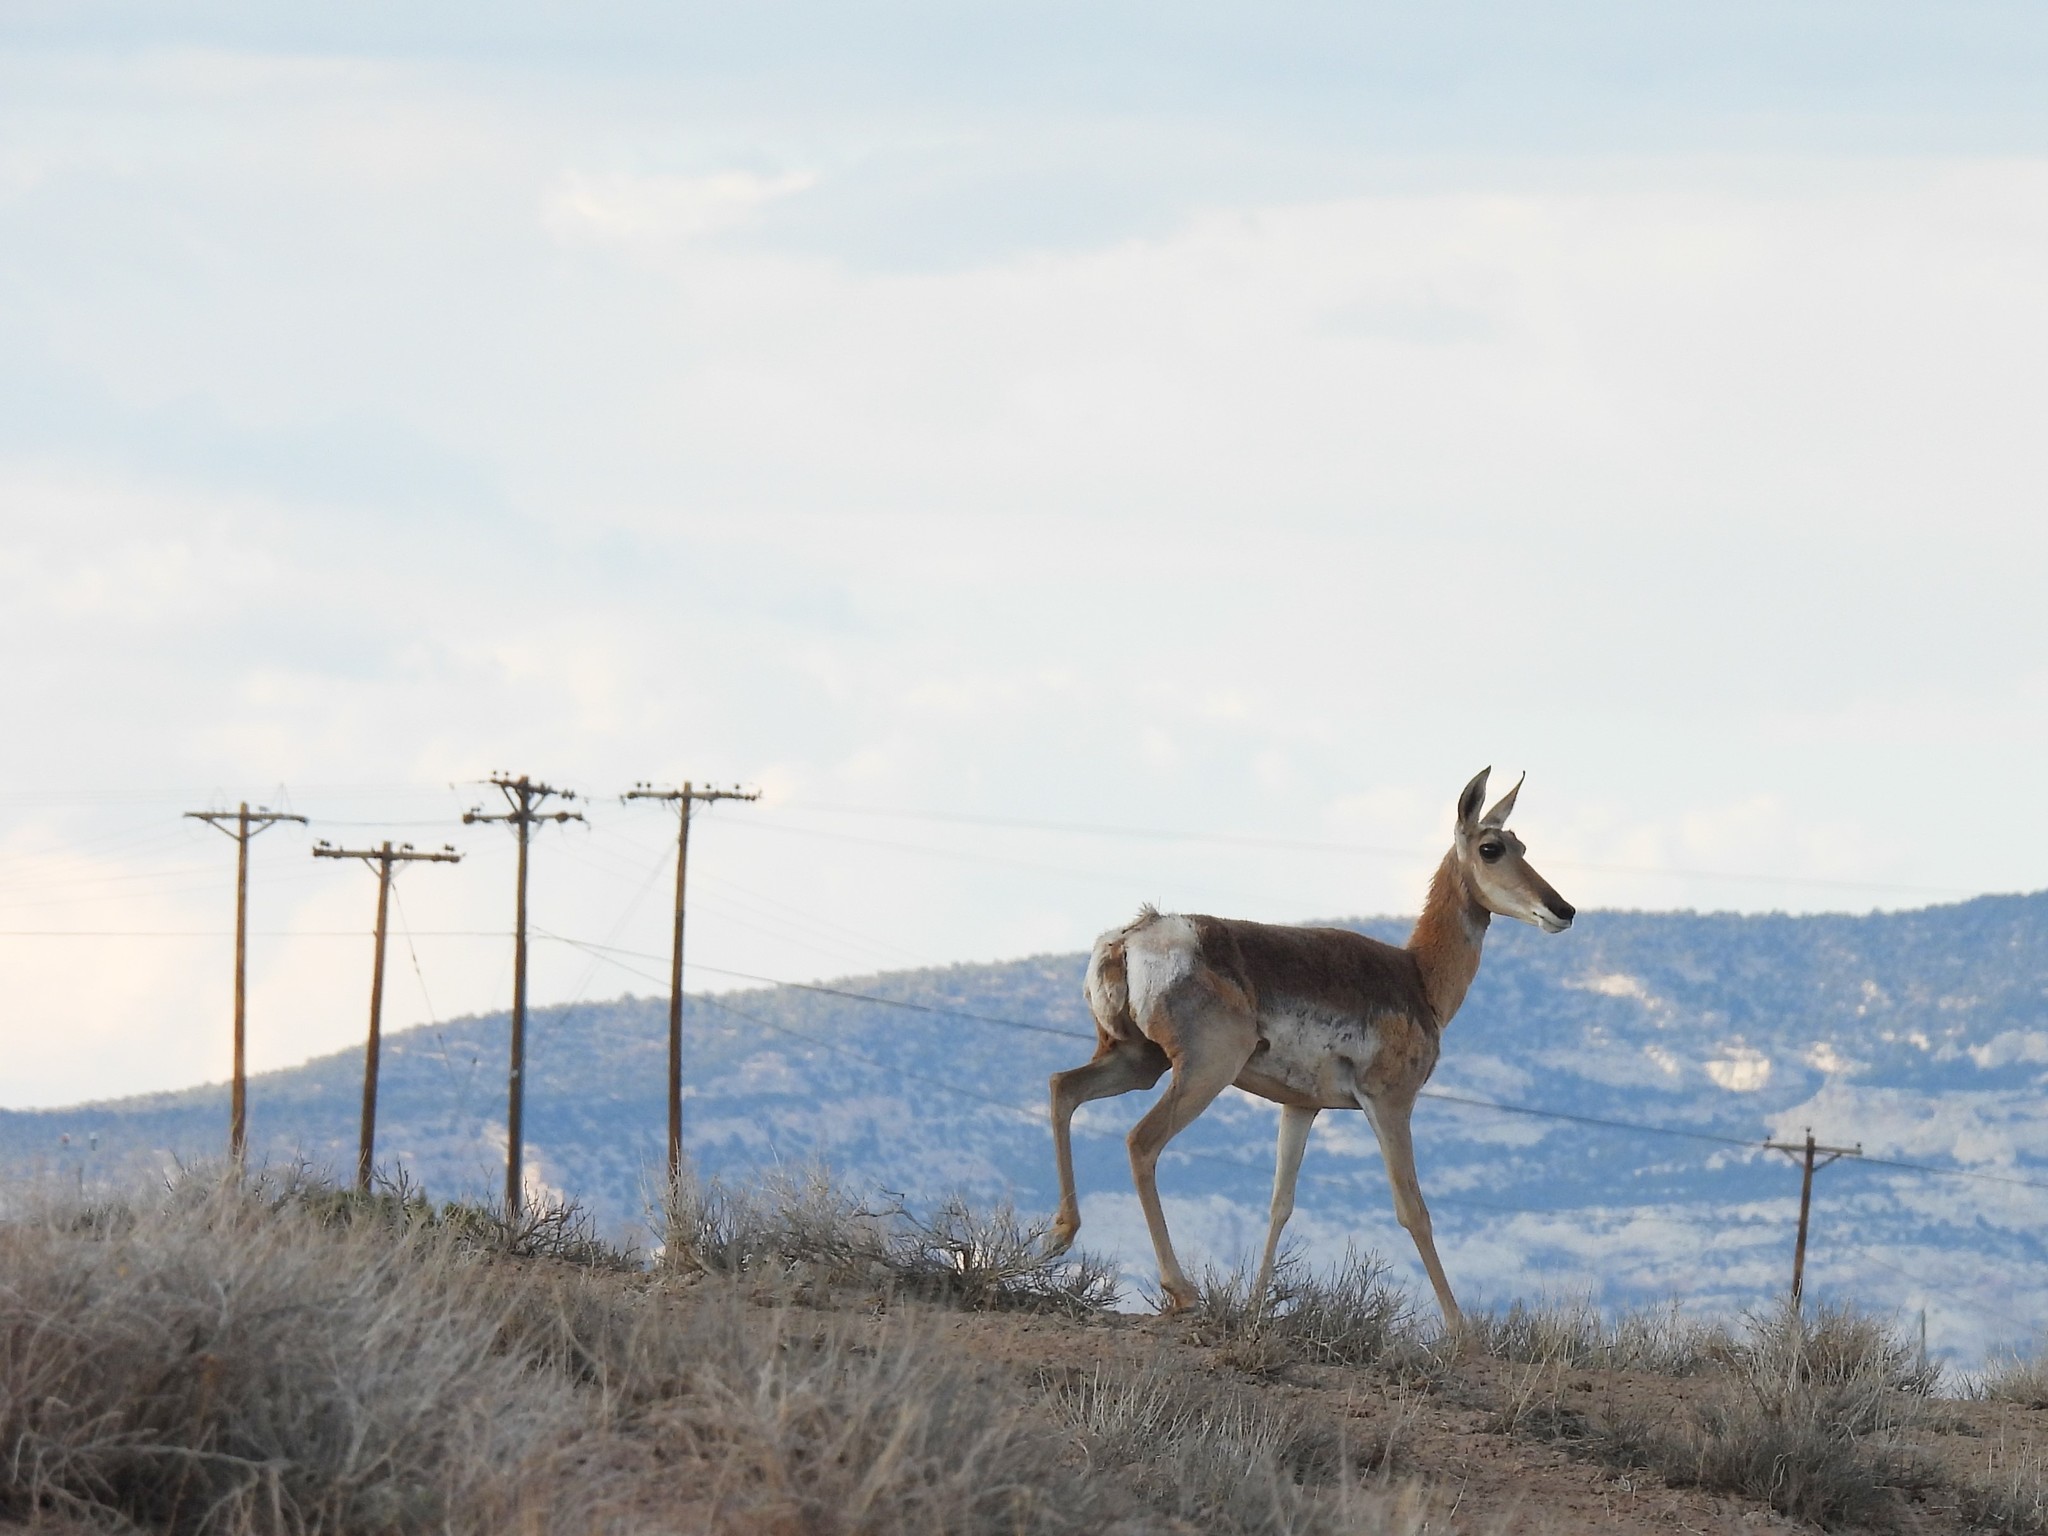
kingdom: Animalia
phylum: Chordata
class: Mammalia
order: Artiodactyla
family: Antilocapridae
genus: Antilocapra
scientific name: Antilocapra americana
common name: Pronghorn
